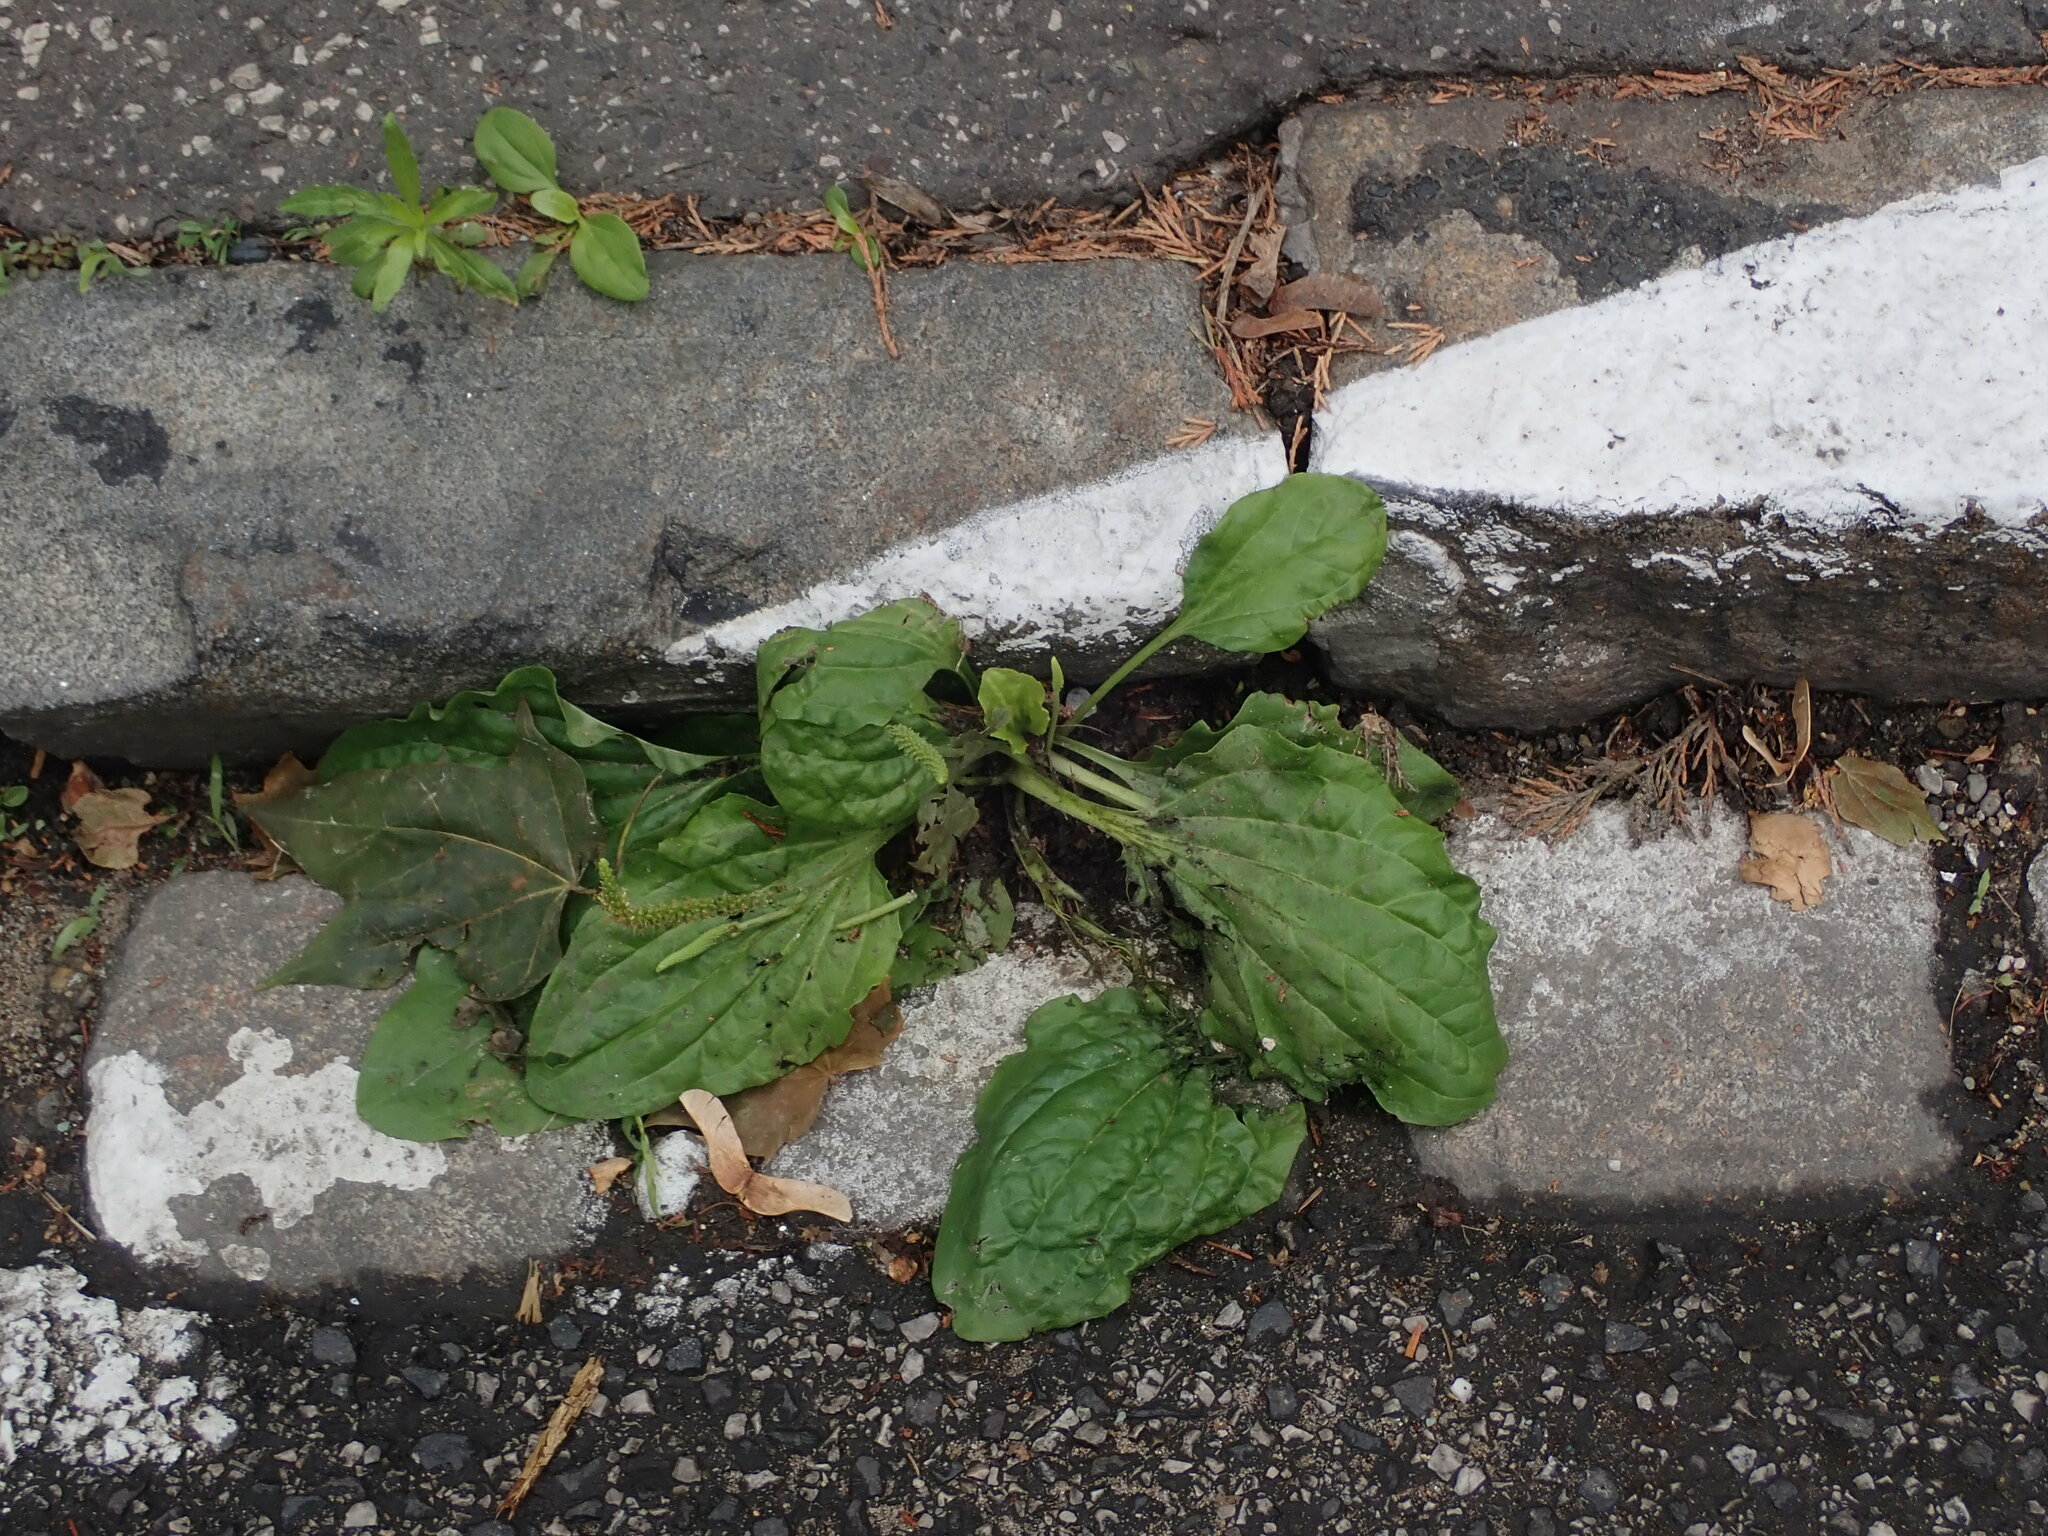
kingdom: Plantae
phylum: Tracheophyta
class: Magnoliopsida
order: Lamiales
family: Plantaginaceae
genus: Plantago
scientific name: Plantago major
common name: Common plantain
